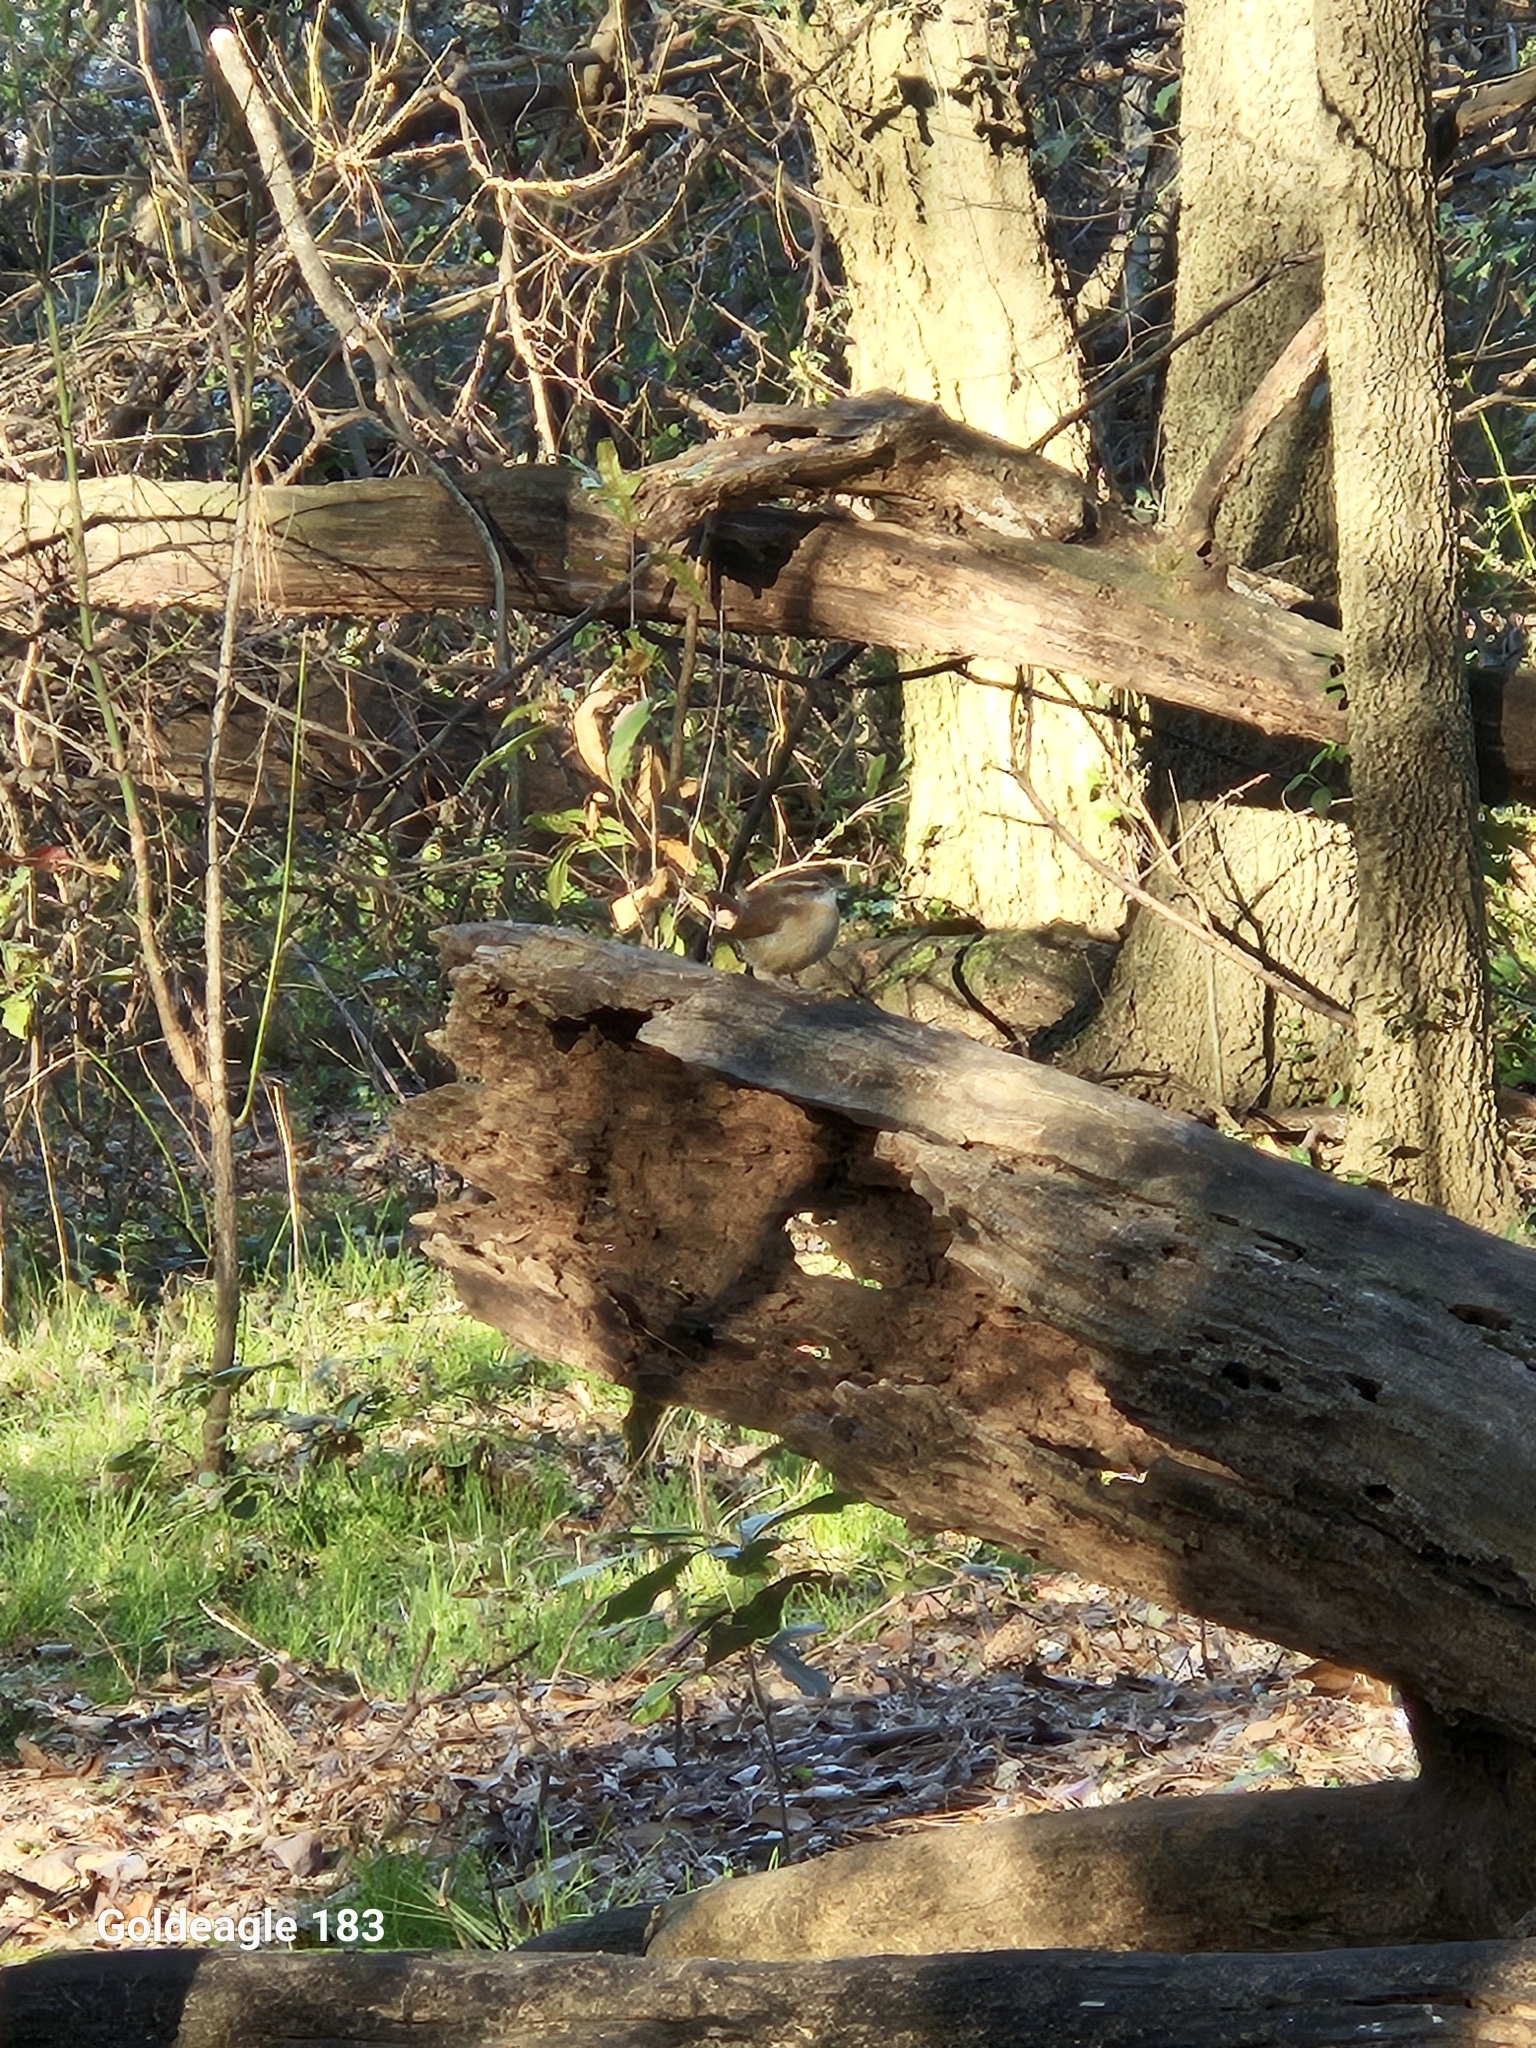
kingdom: Animalia
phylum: Chordata
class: Aves
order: Passeriformes
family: Troglodytidae
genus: Thryothorus
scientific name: Thryothorus ludovicianus
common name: Carolina wren
